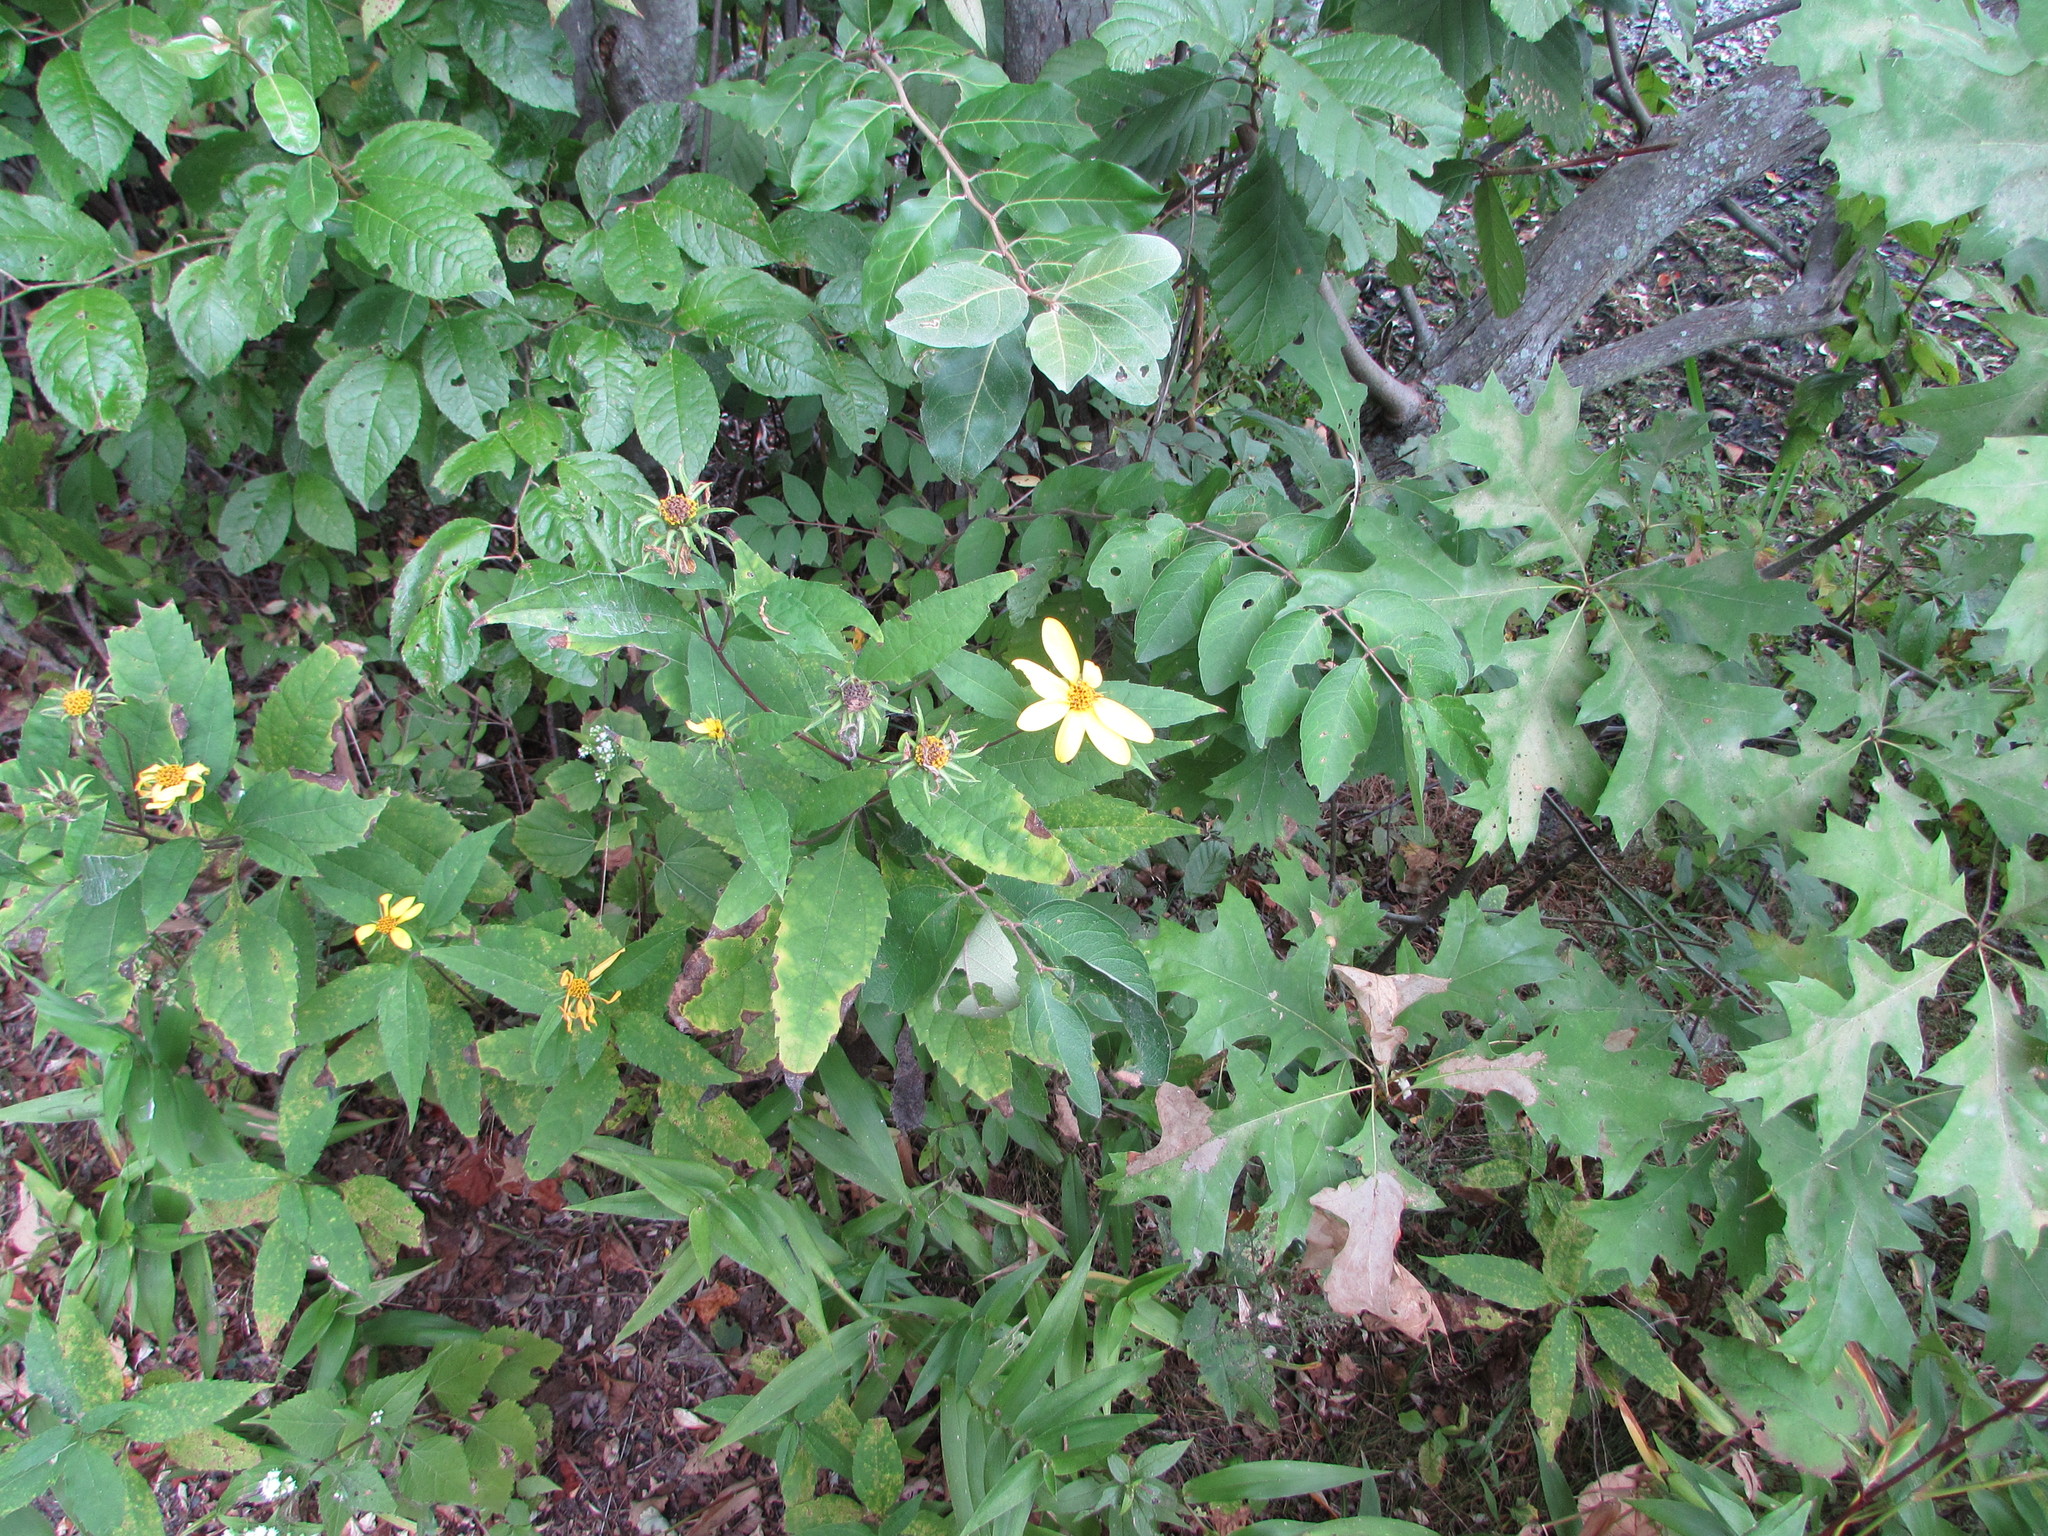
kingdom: Plantae
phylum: Tracheophyta
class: Magnoliopsida
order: Asterales
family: Asteraceae
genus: Helianthus
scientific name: Helianthus decapetalus
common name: Thin-leaved sunflower
